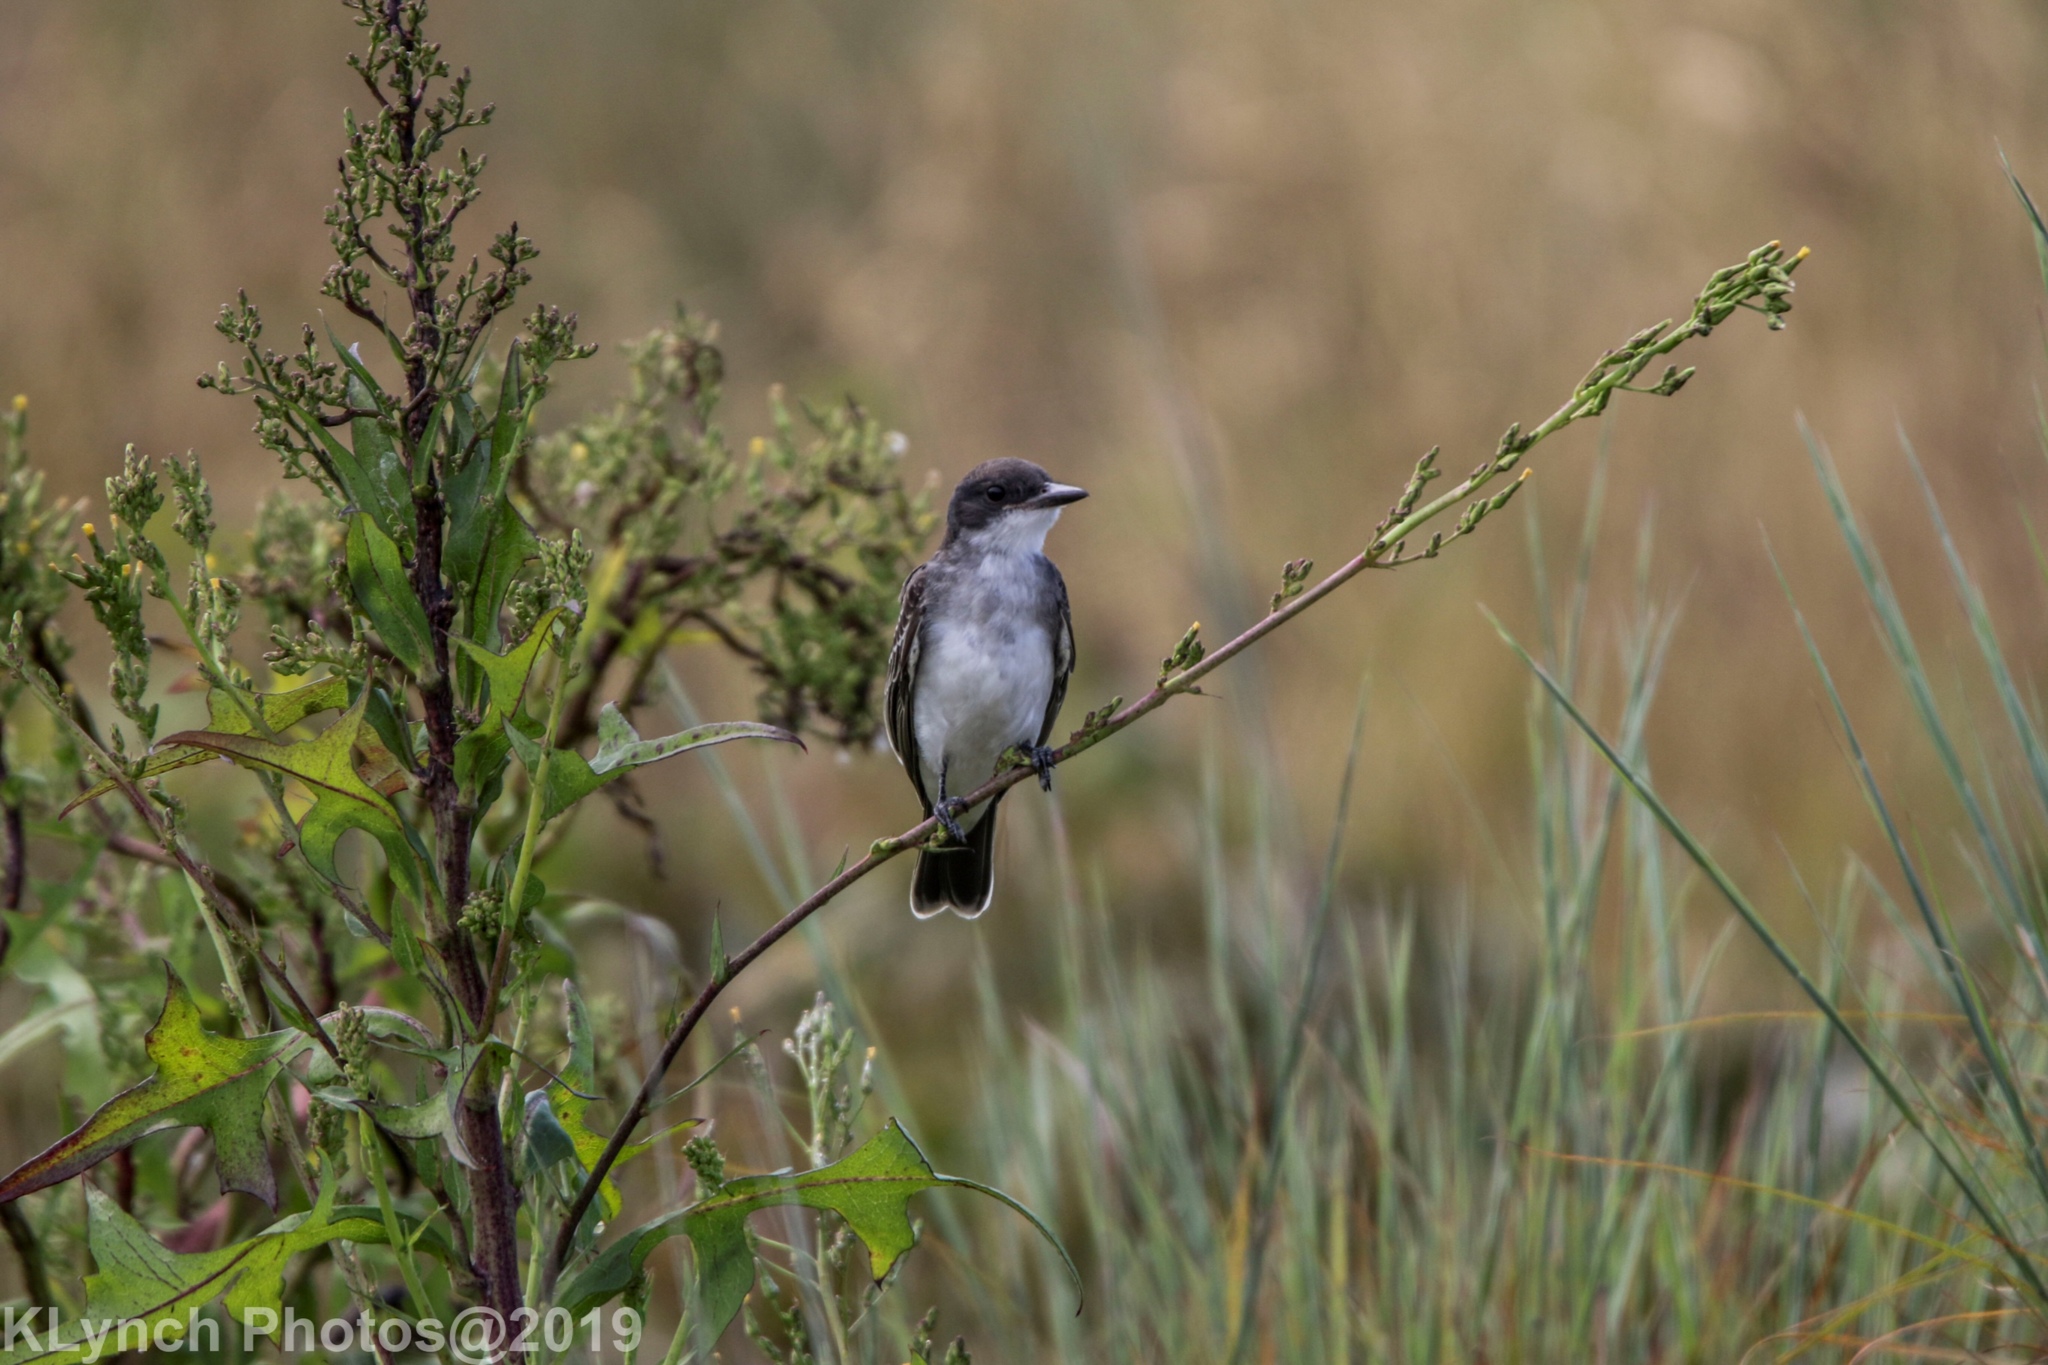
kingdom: Animalia
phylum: Chordata
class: Aves
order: Passeriformes
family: Tyrannidae
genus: Tyrannus
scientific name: Tyrannus tyrannus
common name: Eastern kingbird
